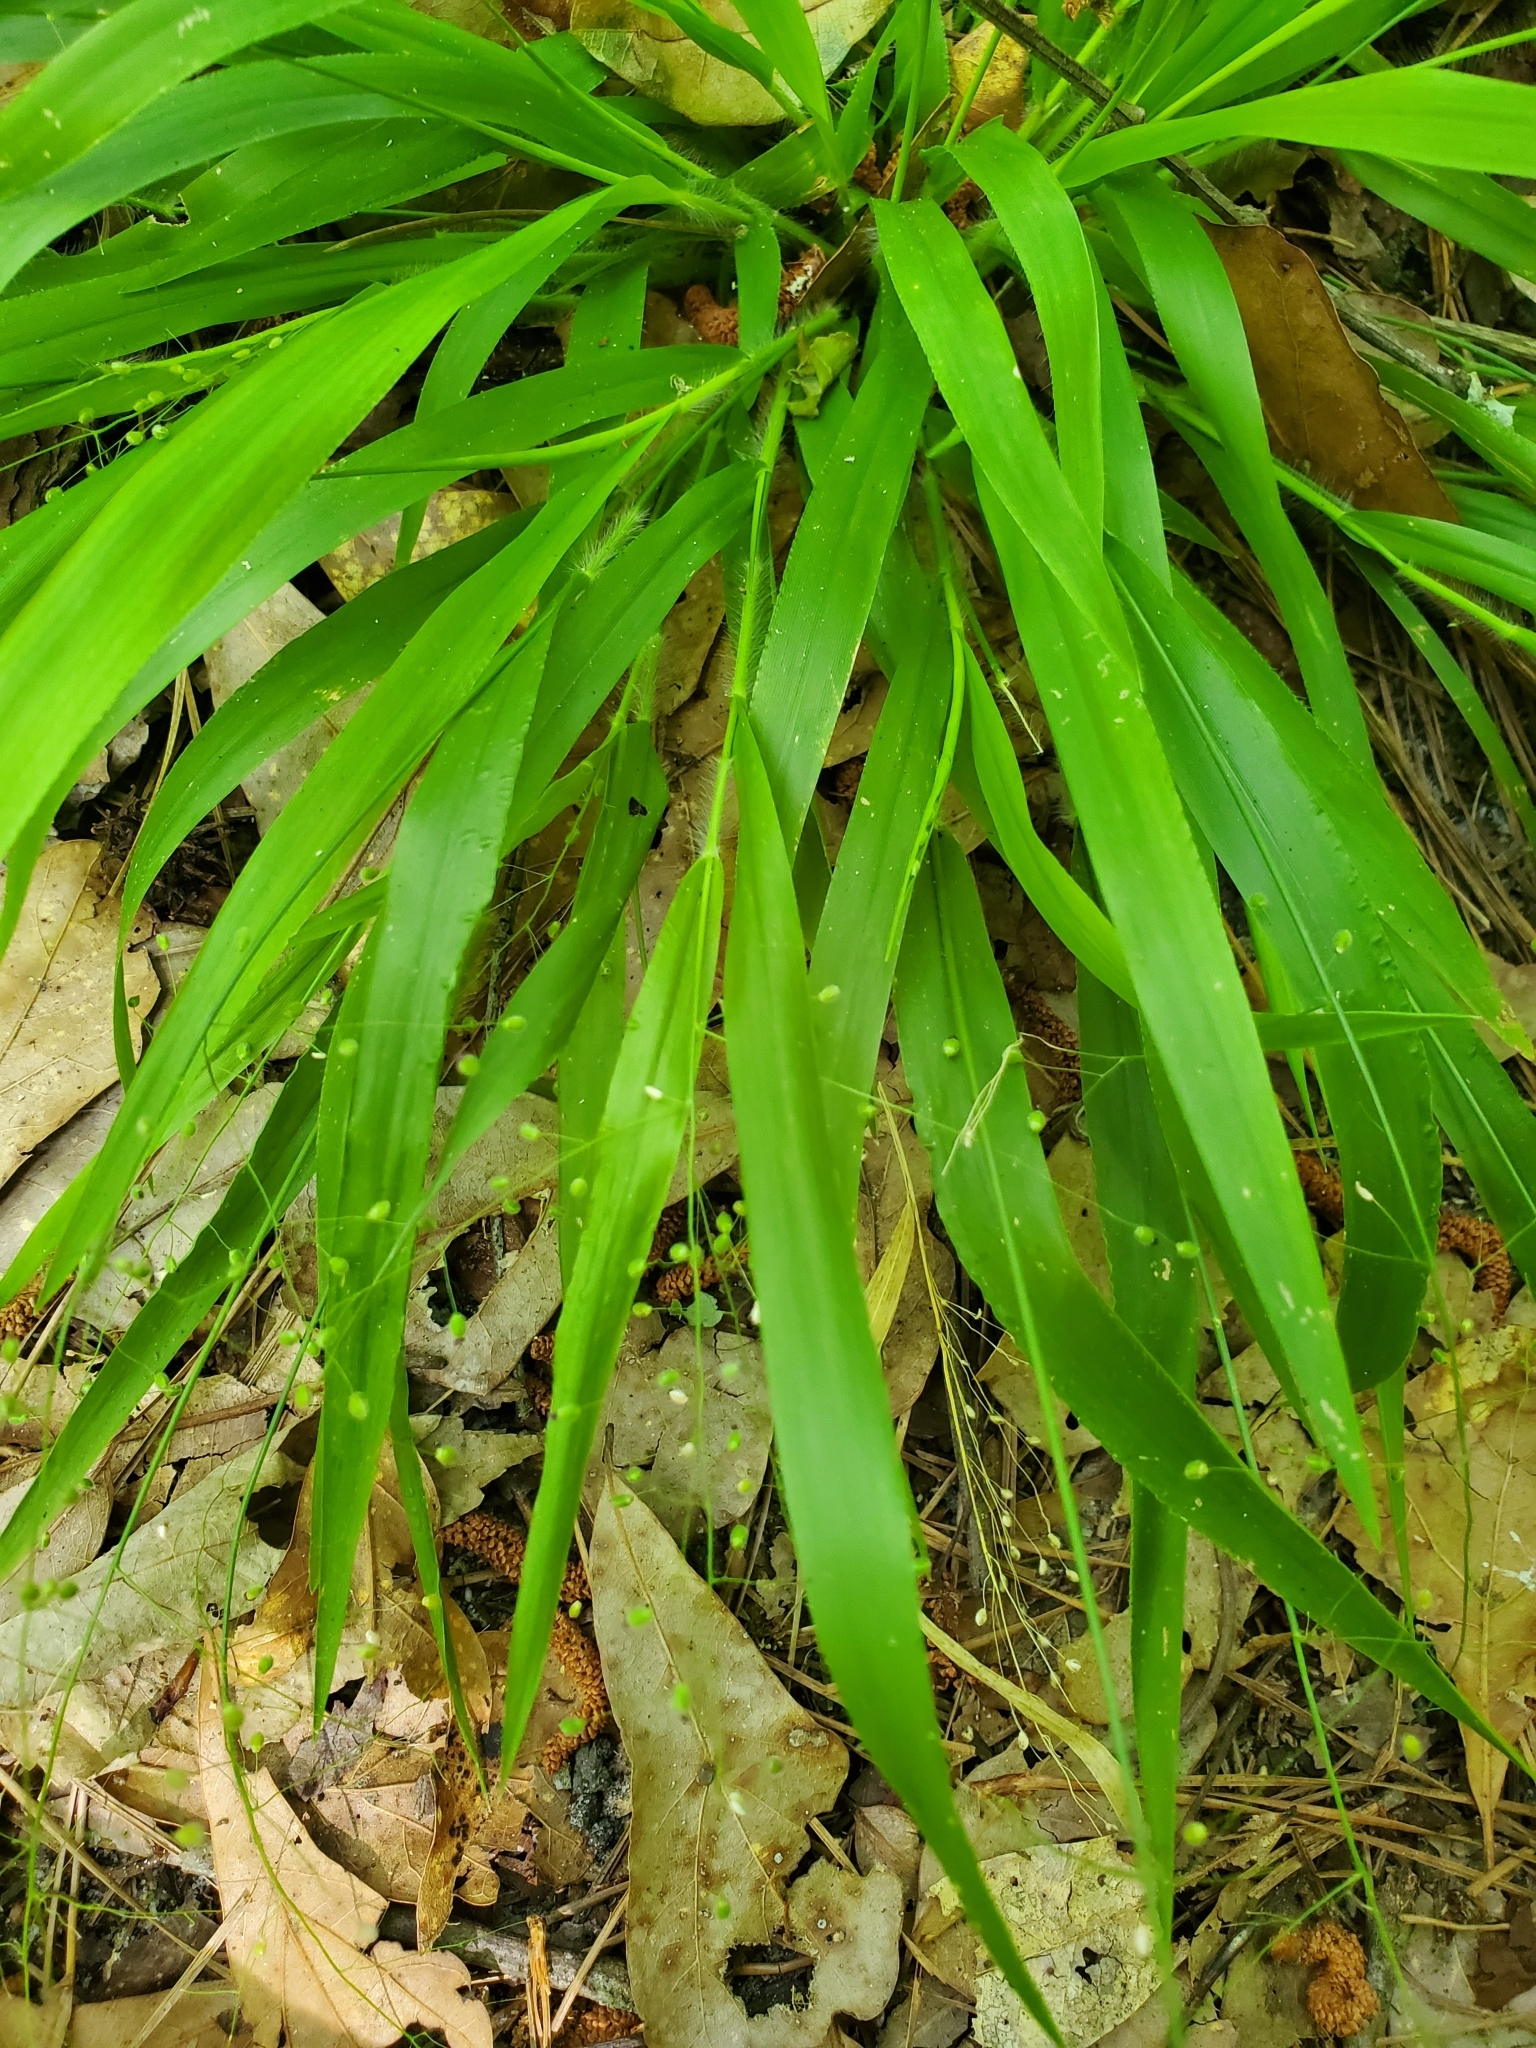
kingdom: Plantae
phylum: Tracheophyta
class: Liliopsida
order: Poales
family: Poaceae
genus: Dichanthelium
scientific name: Dichanthelium laxiflorum
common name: Soft-tuft panic grass
